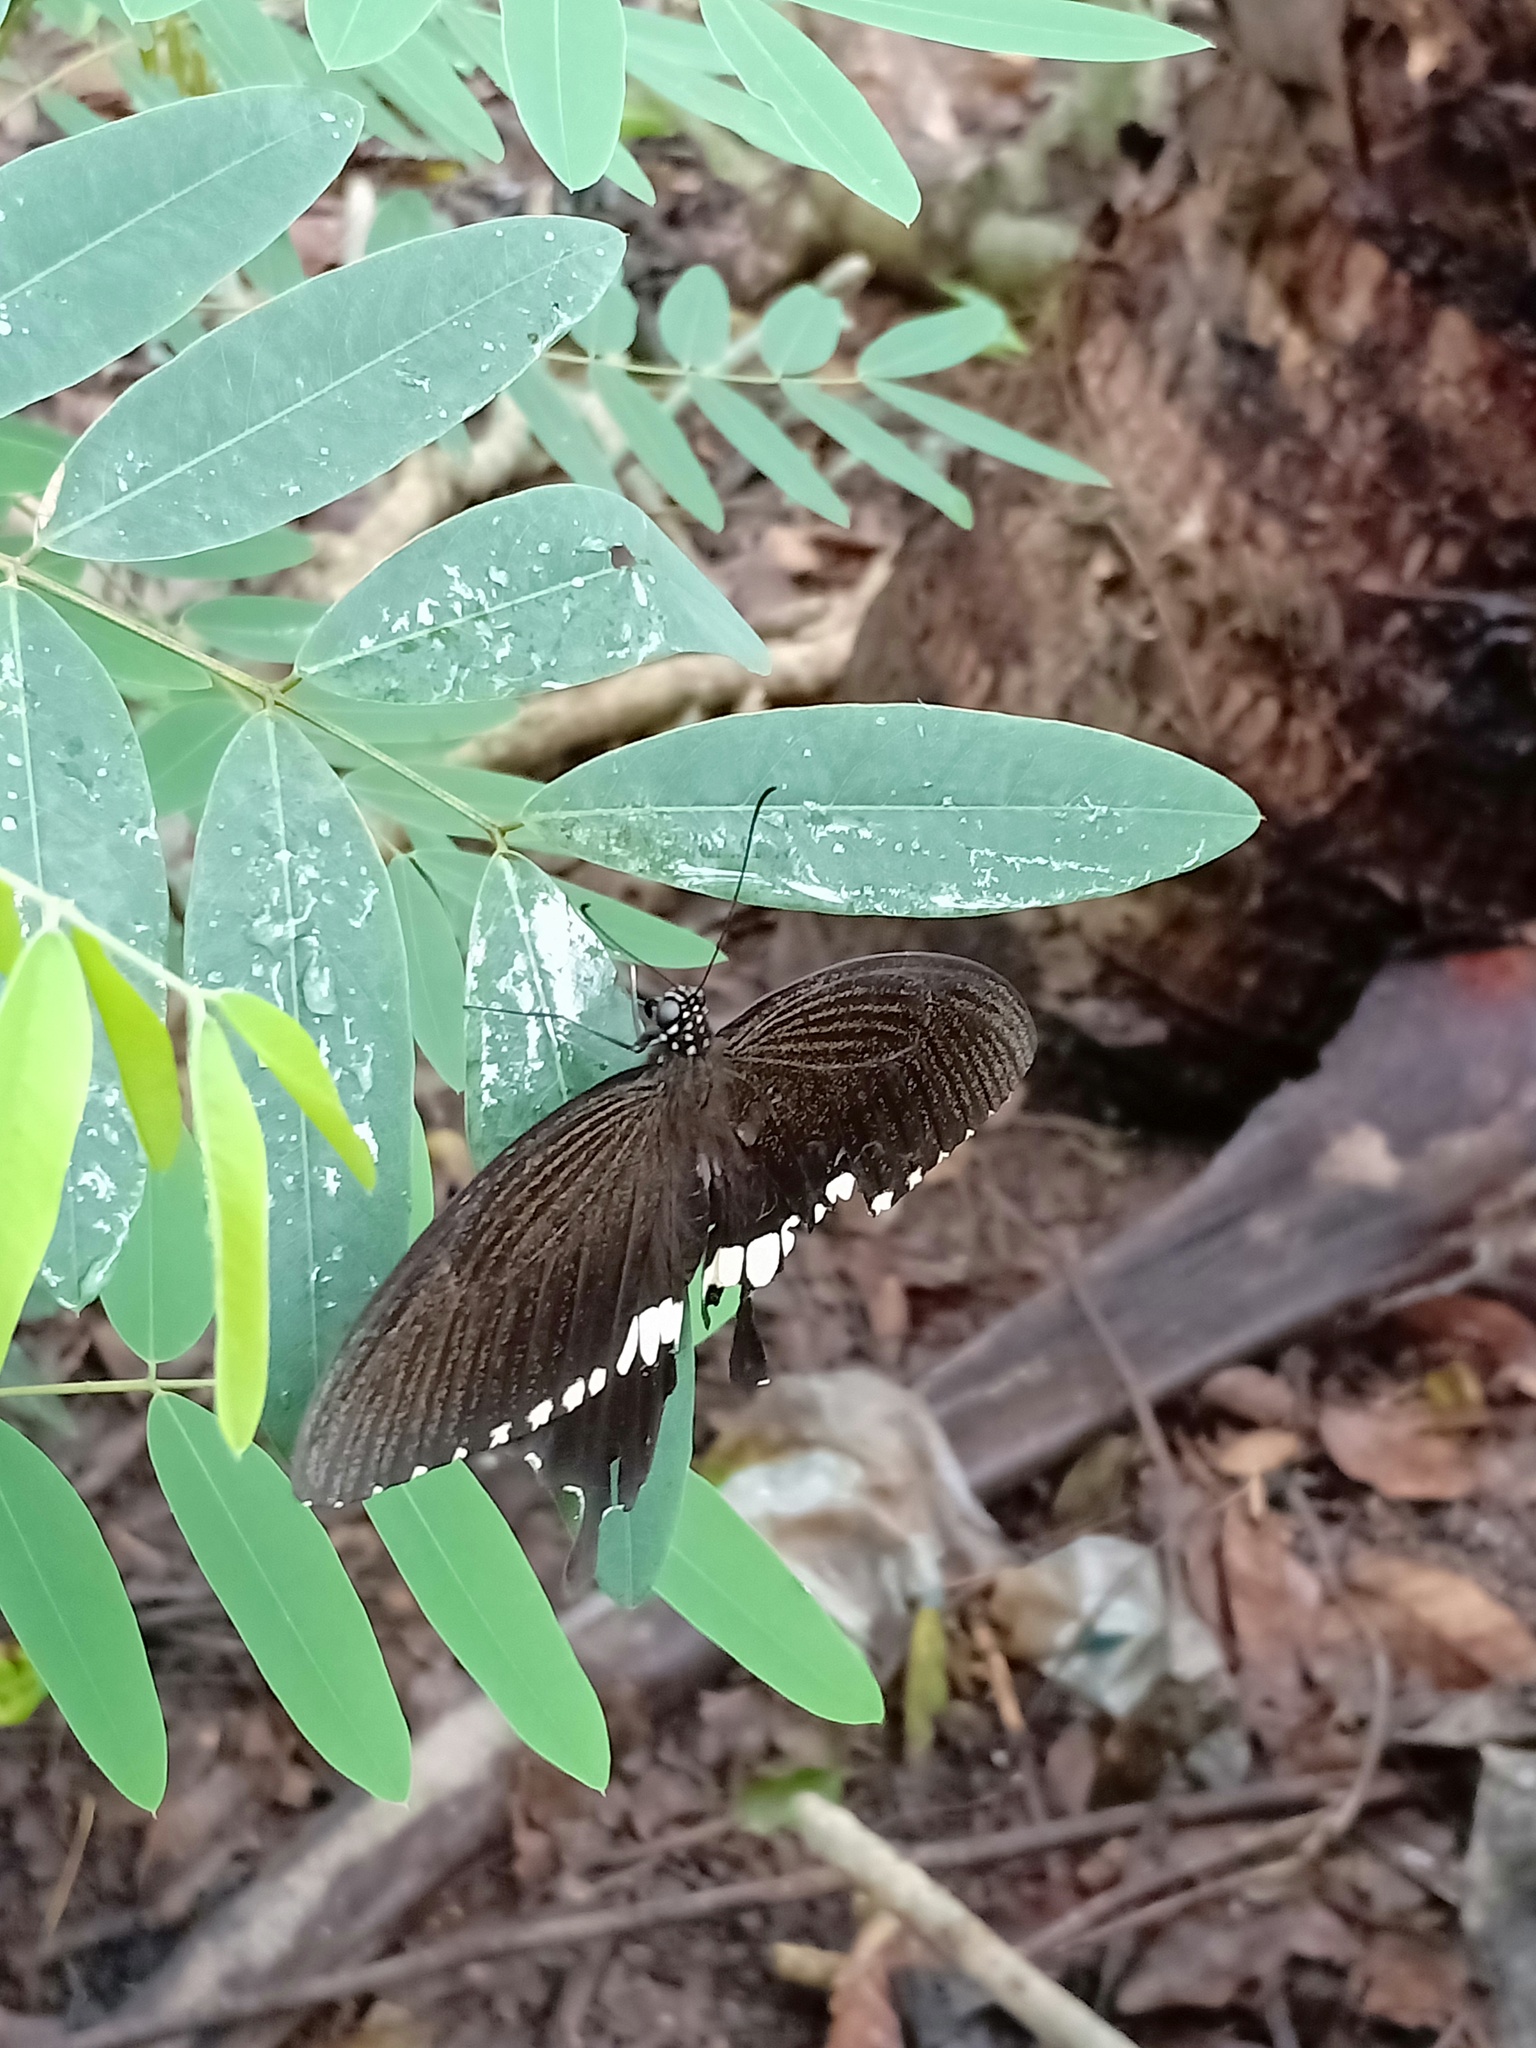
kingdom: Animalia
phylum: Arthropoda
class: Insecta
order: Lepidoptera
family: Papilionidae
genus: Papilio
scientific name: Papilio polytes
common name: Common mormon
